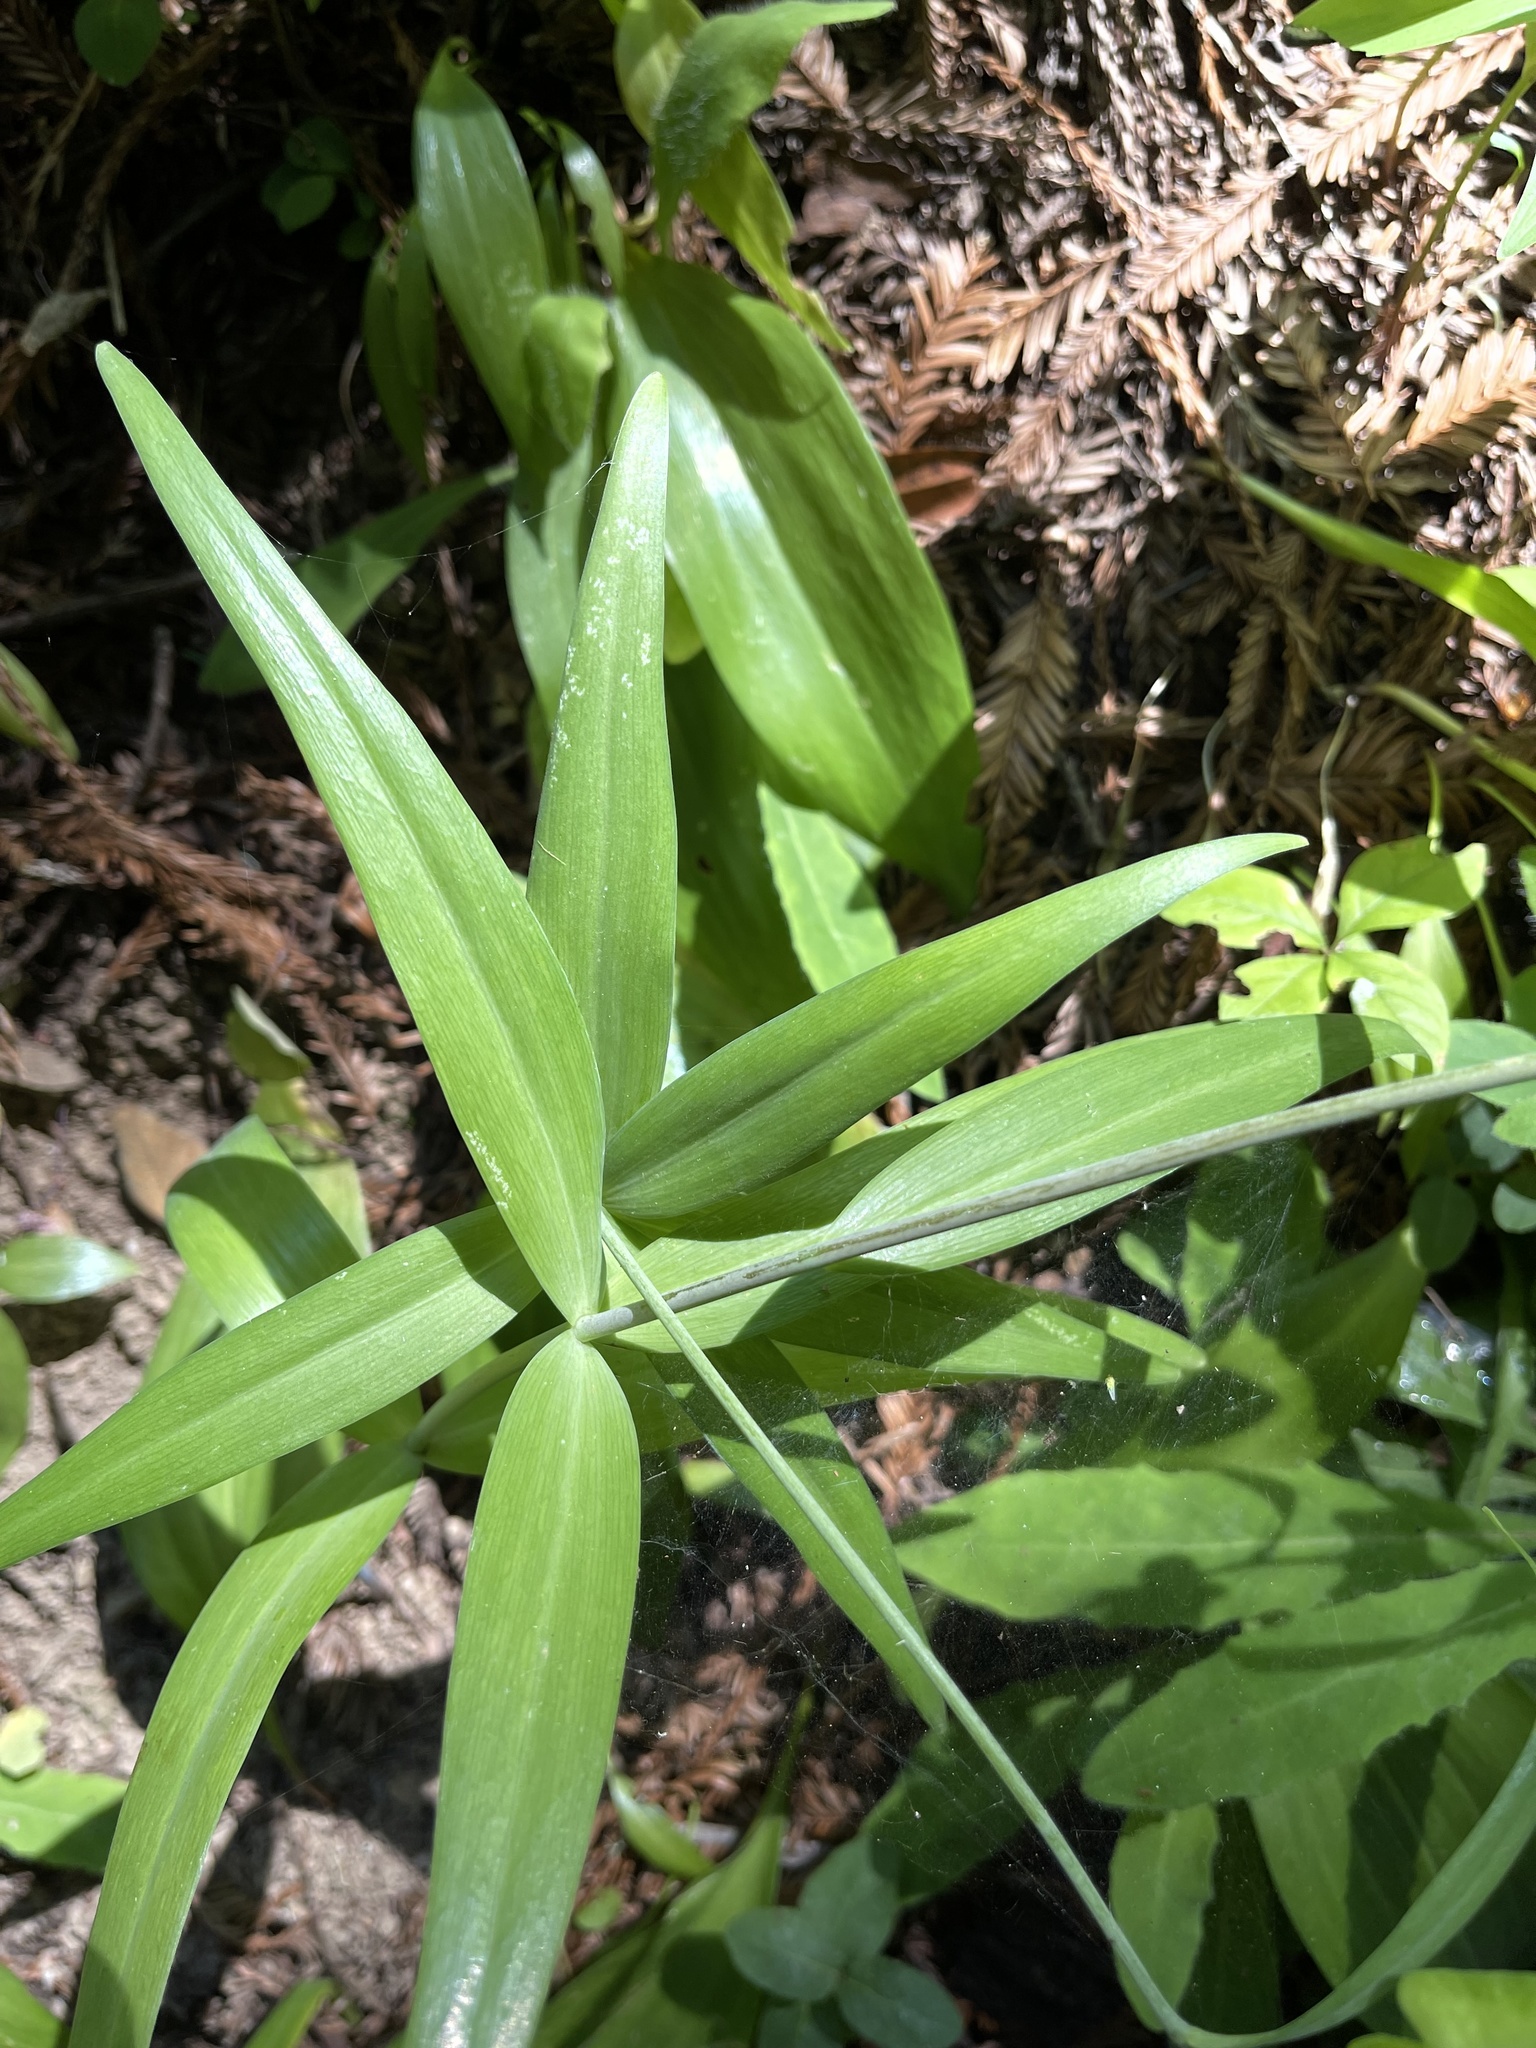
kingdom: Plantae
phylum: Tracheophyta
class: Liliopsida
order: Liliales
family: Liliaceae
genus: Fritillaria
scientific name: Fritillaria affinis
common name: Ojai fritillary
